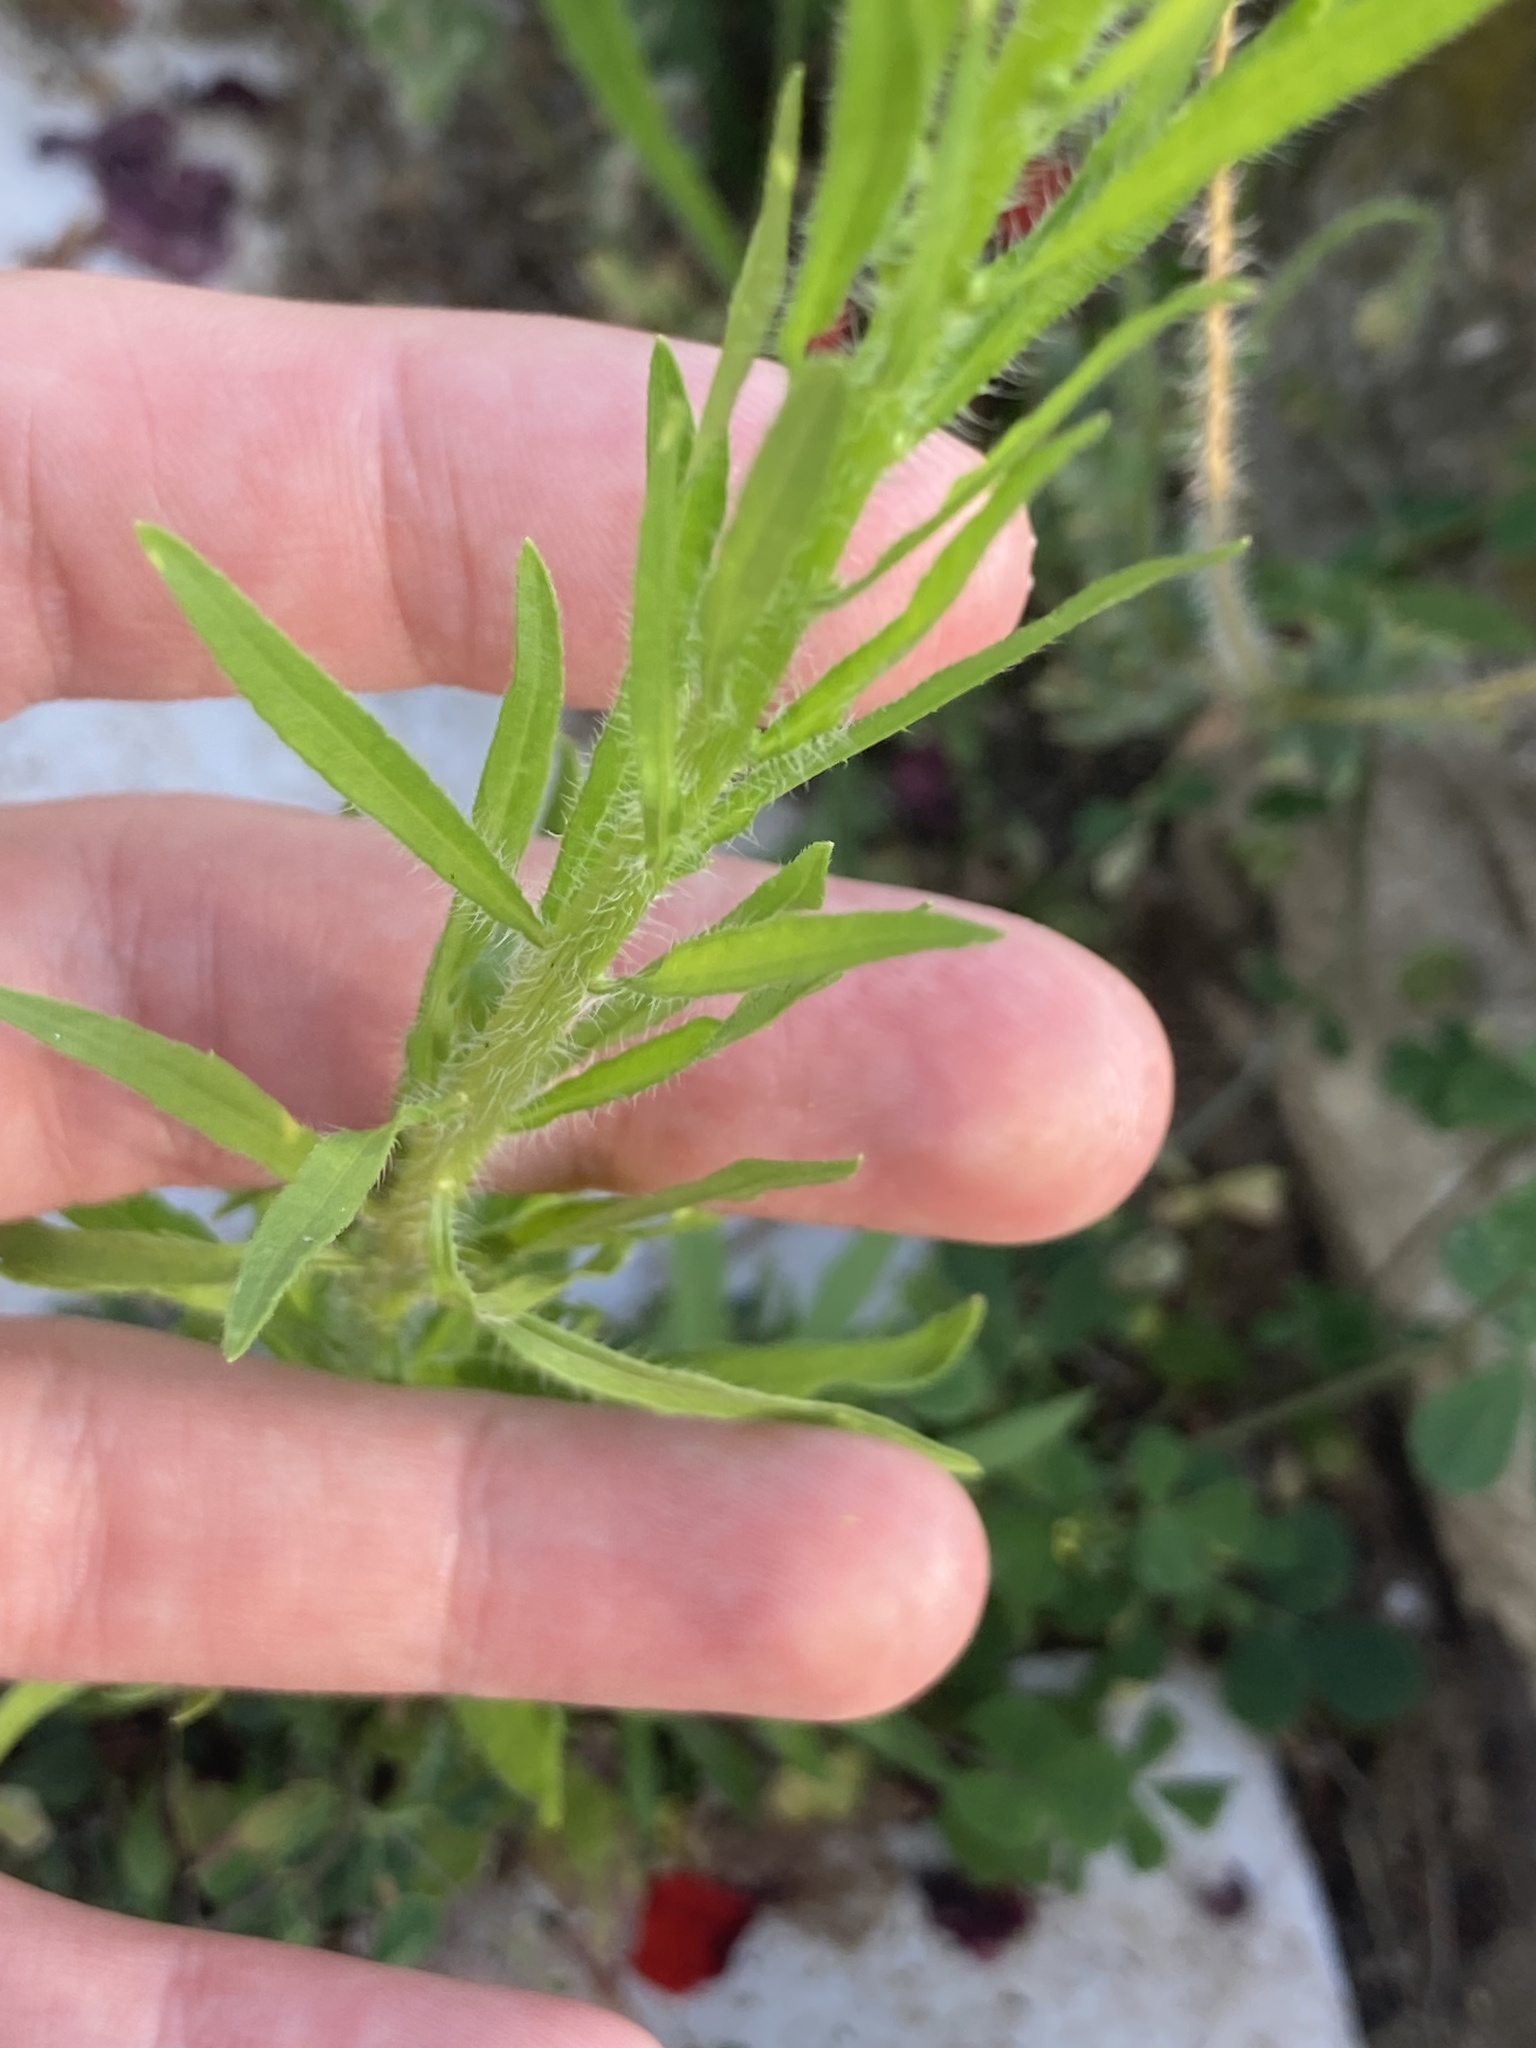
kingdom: Plantae
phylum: Tracheophyta
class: Magnoliopsida
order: Asterales
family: Asteraceae
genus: Erigeron
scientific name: Erigeron canadensis
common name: Canadian fleabane
